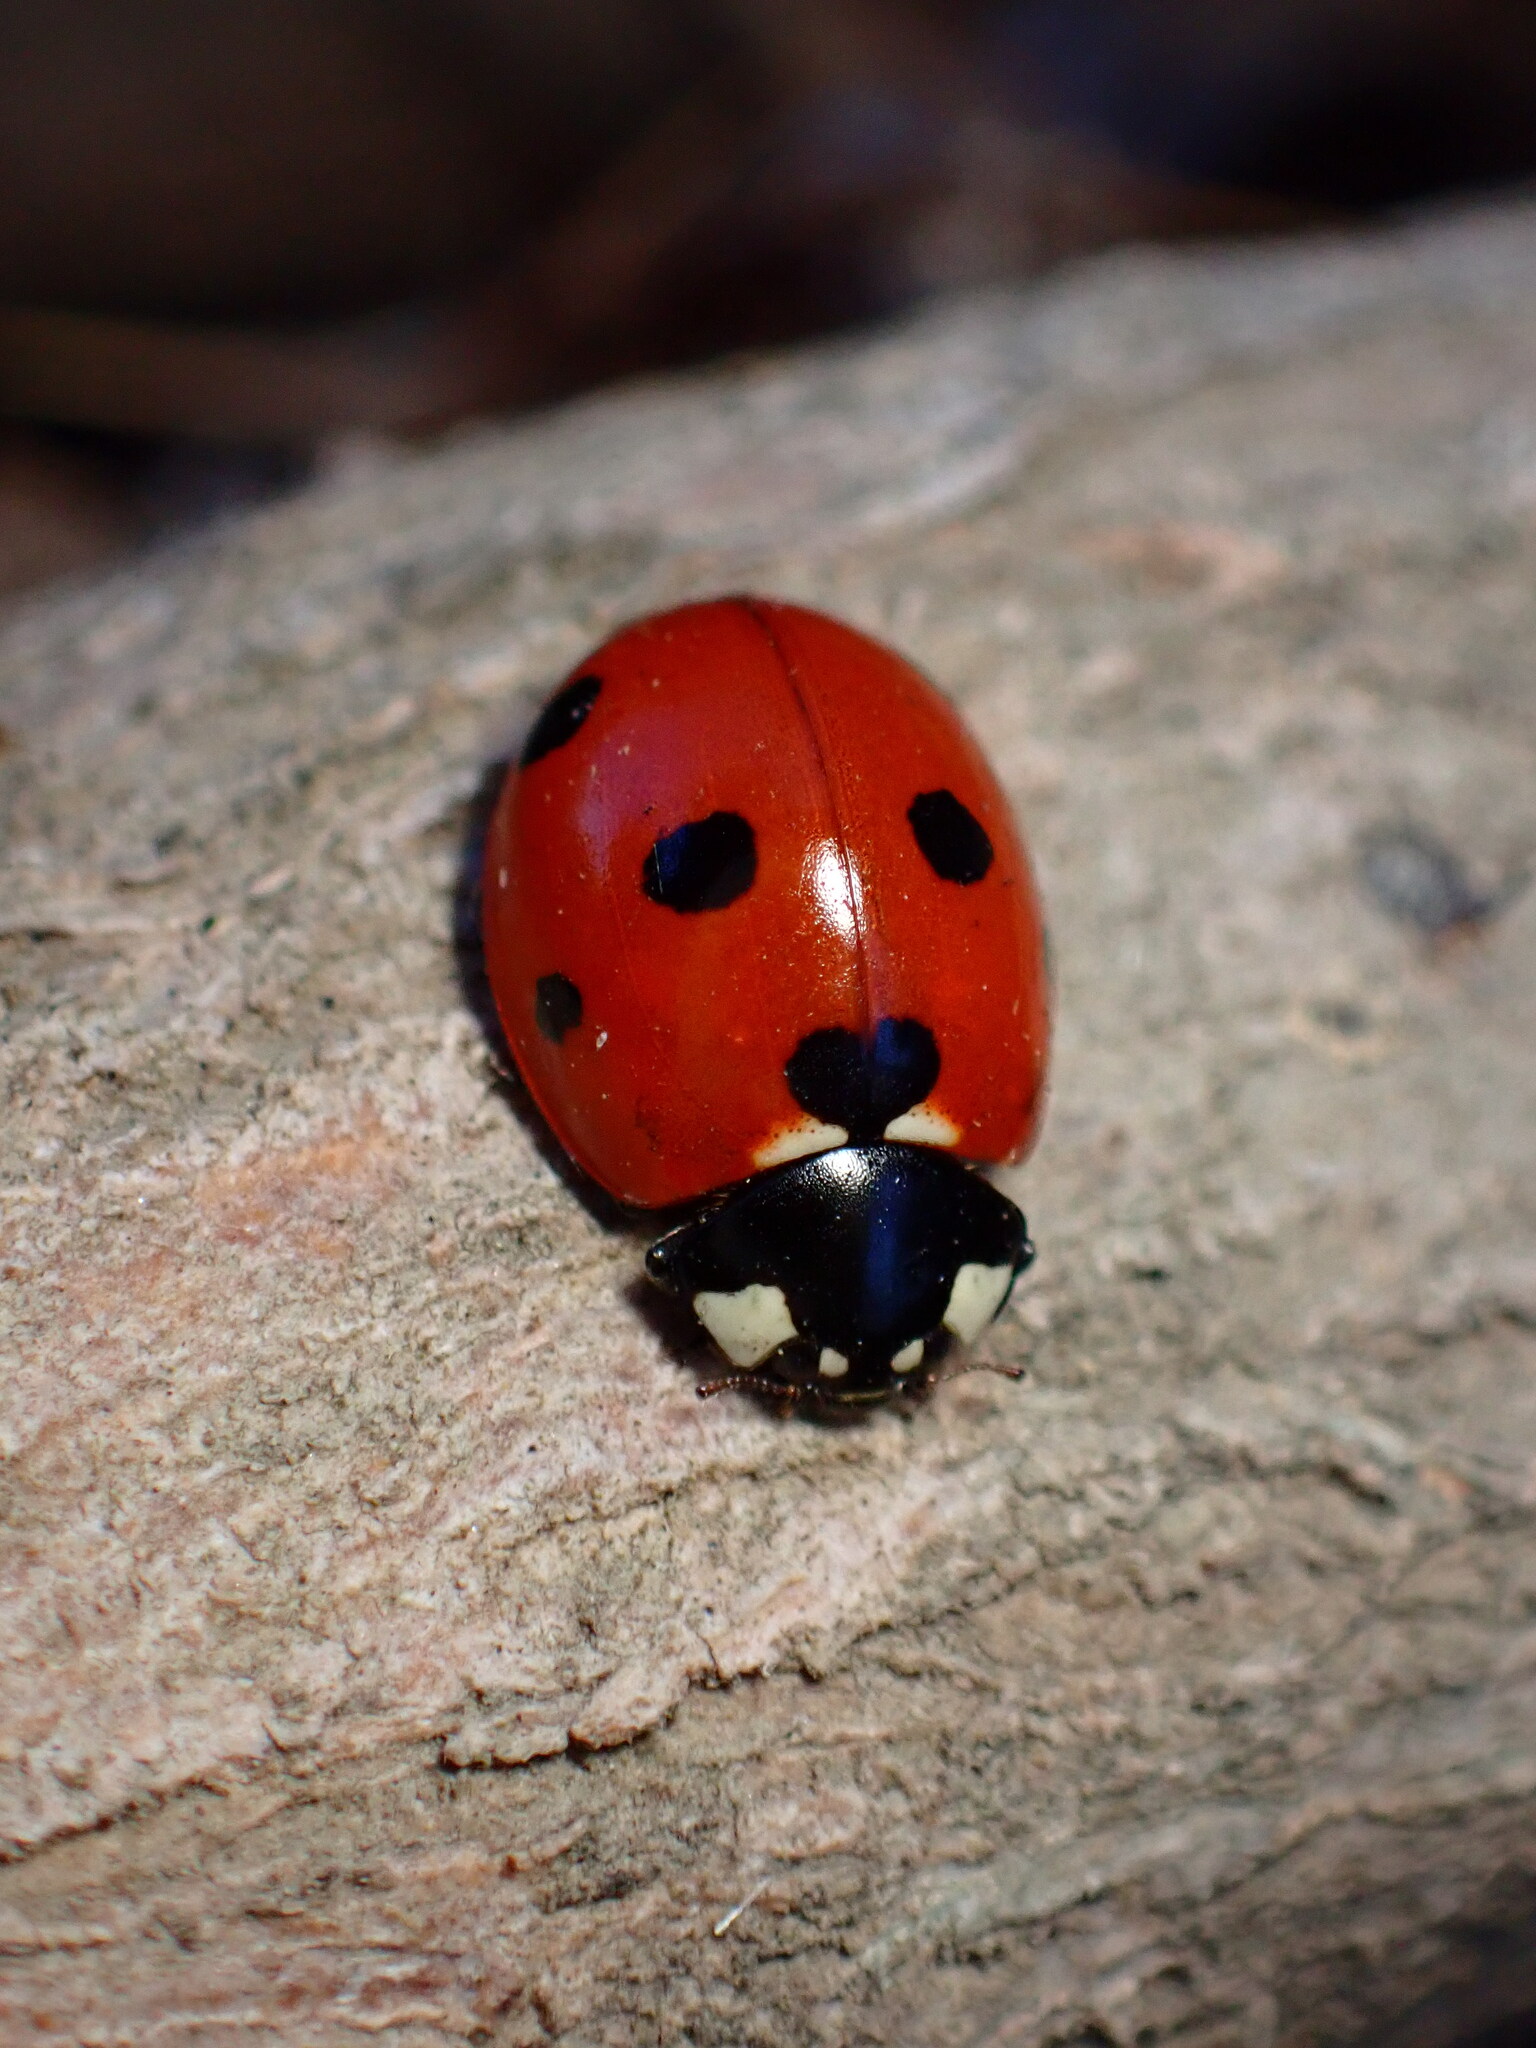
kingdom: Animalia
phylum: Arthropoda
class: Insecta
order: Coleoptera
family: Coccinellidae
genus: Coccinella
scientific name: Coccinella septempunctata
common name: Sevenspotted lady beetle
